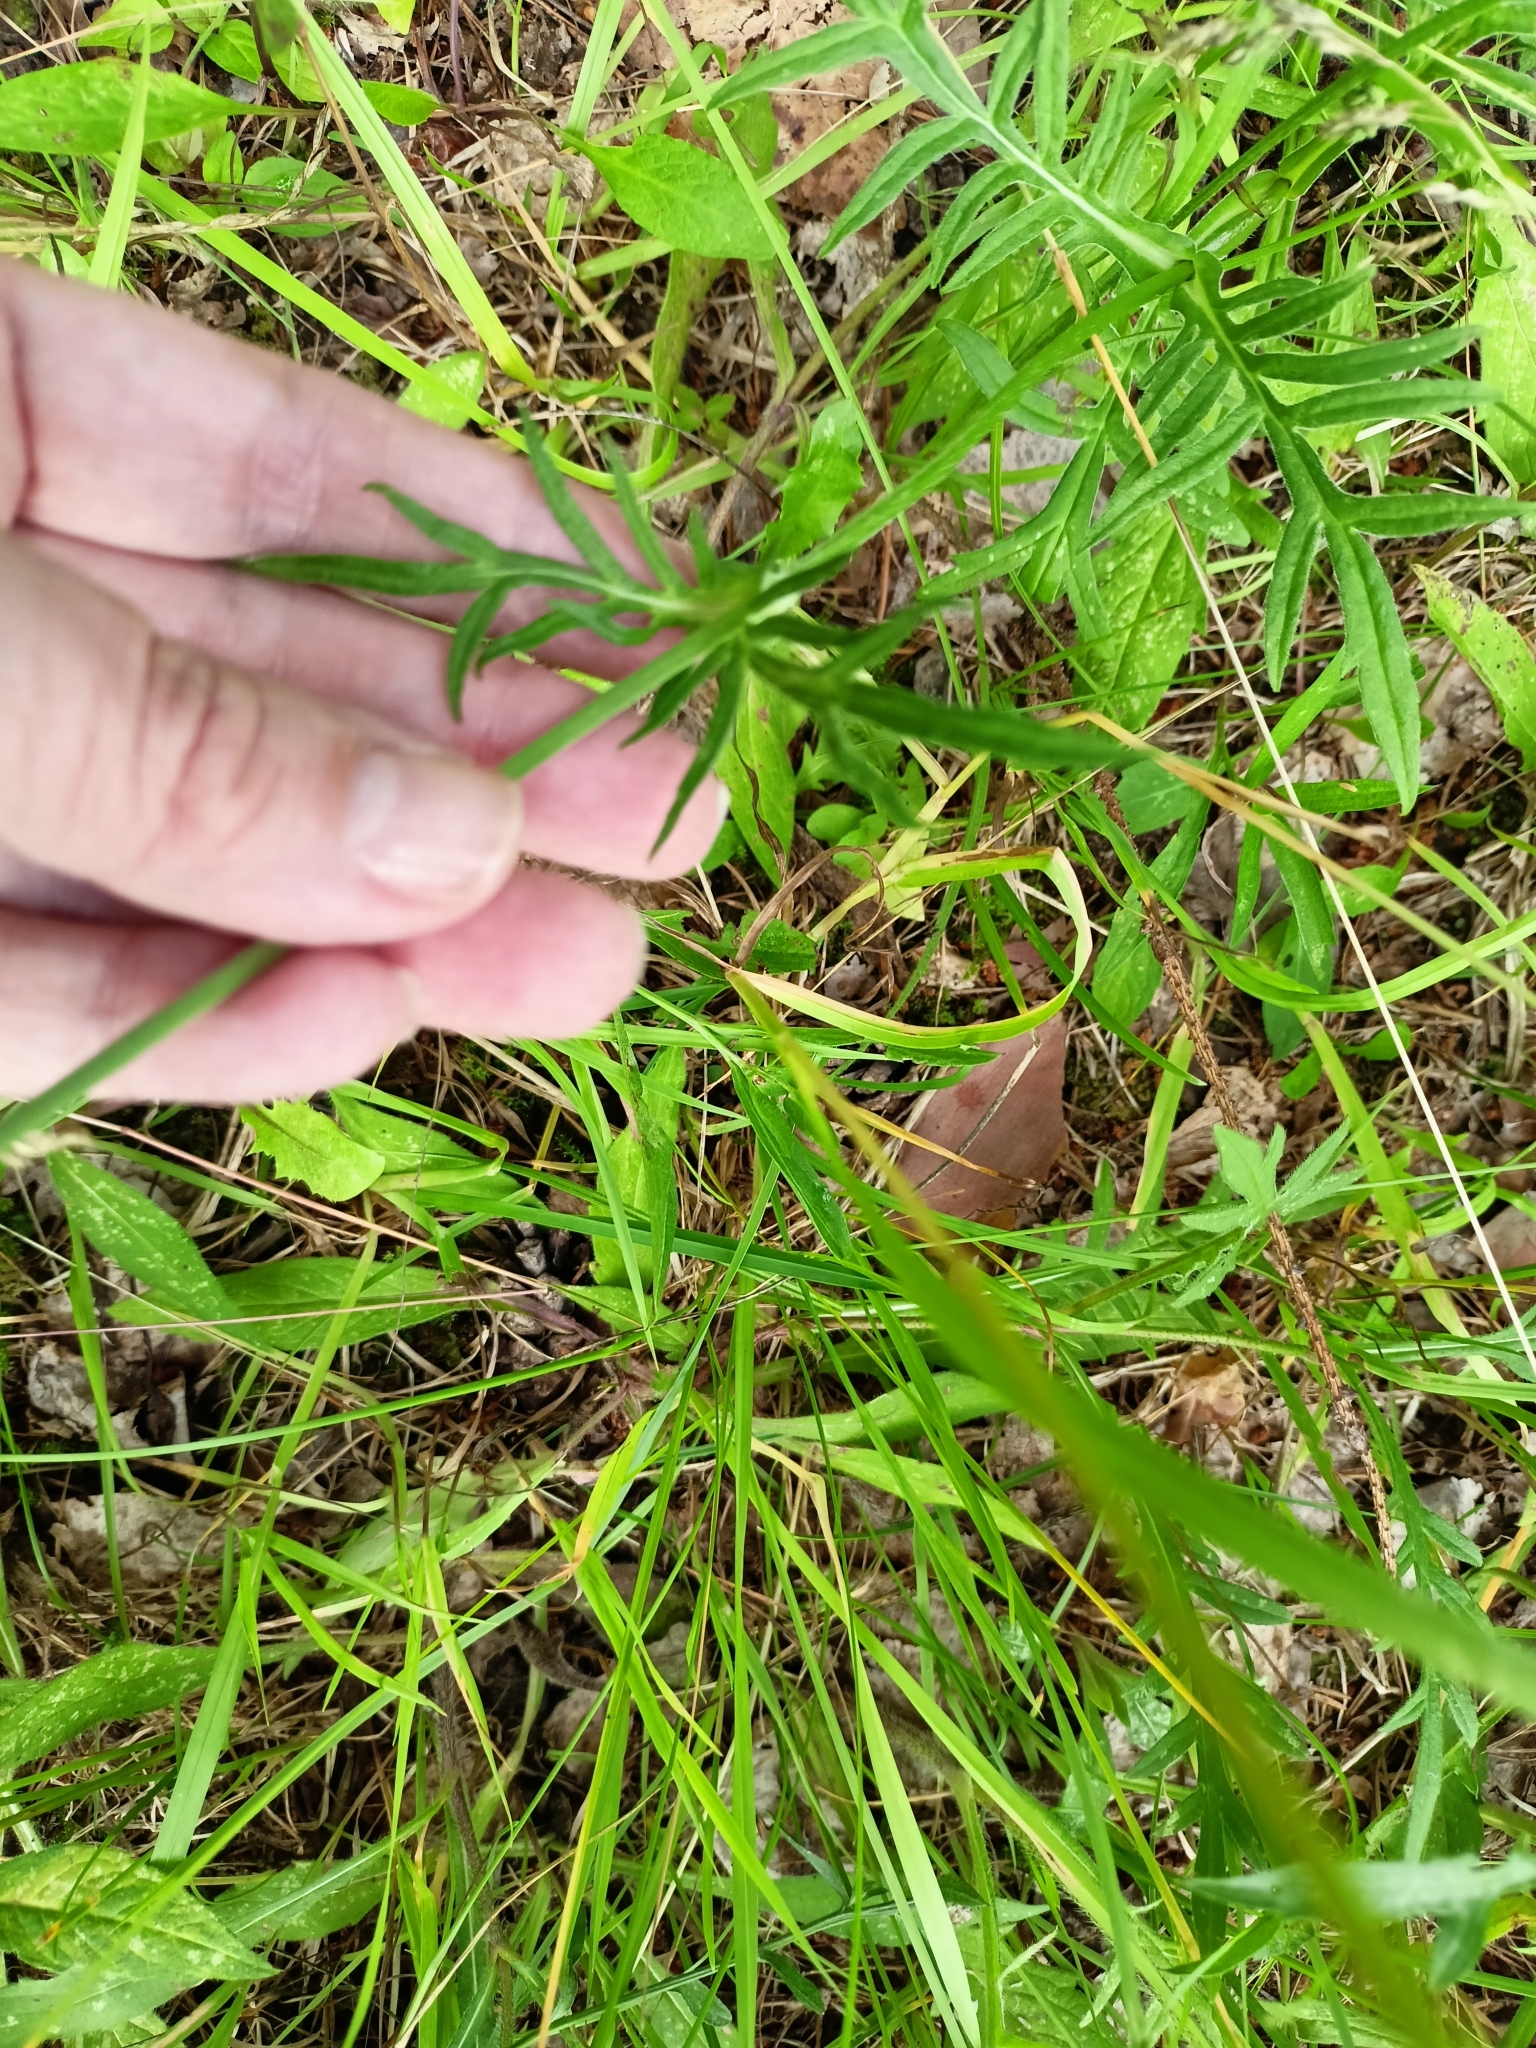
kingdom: Plantae
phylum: Tracheophyta
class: Magnoliopsida
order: Dipsacales
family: Caprifoliaceae
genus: Knautia
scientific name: Knautia arvensis
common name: Field scabiosa
